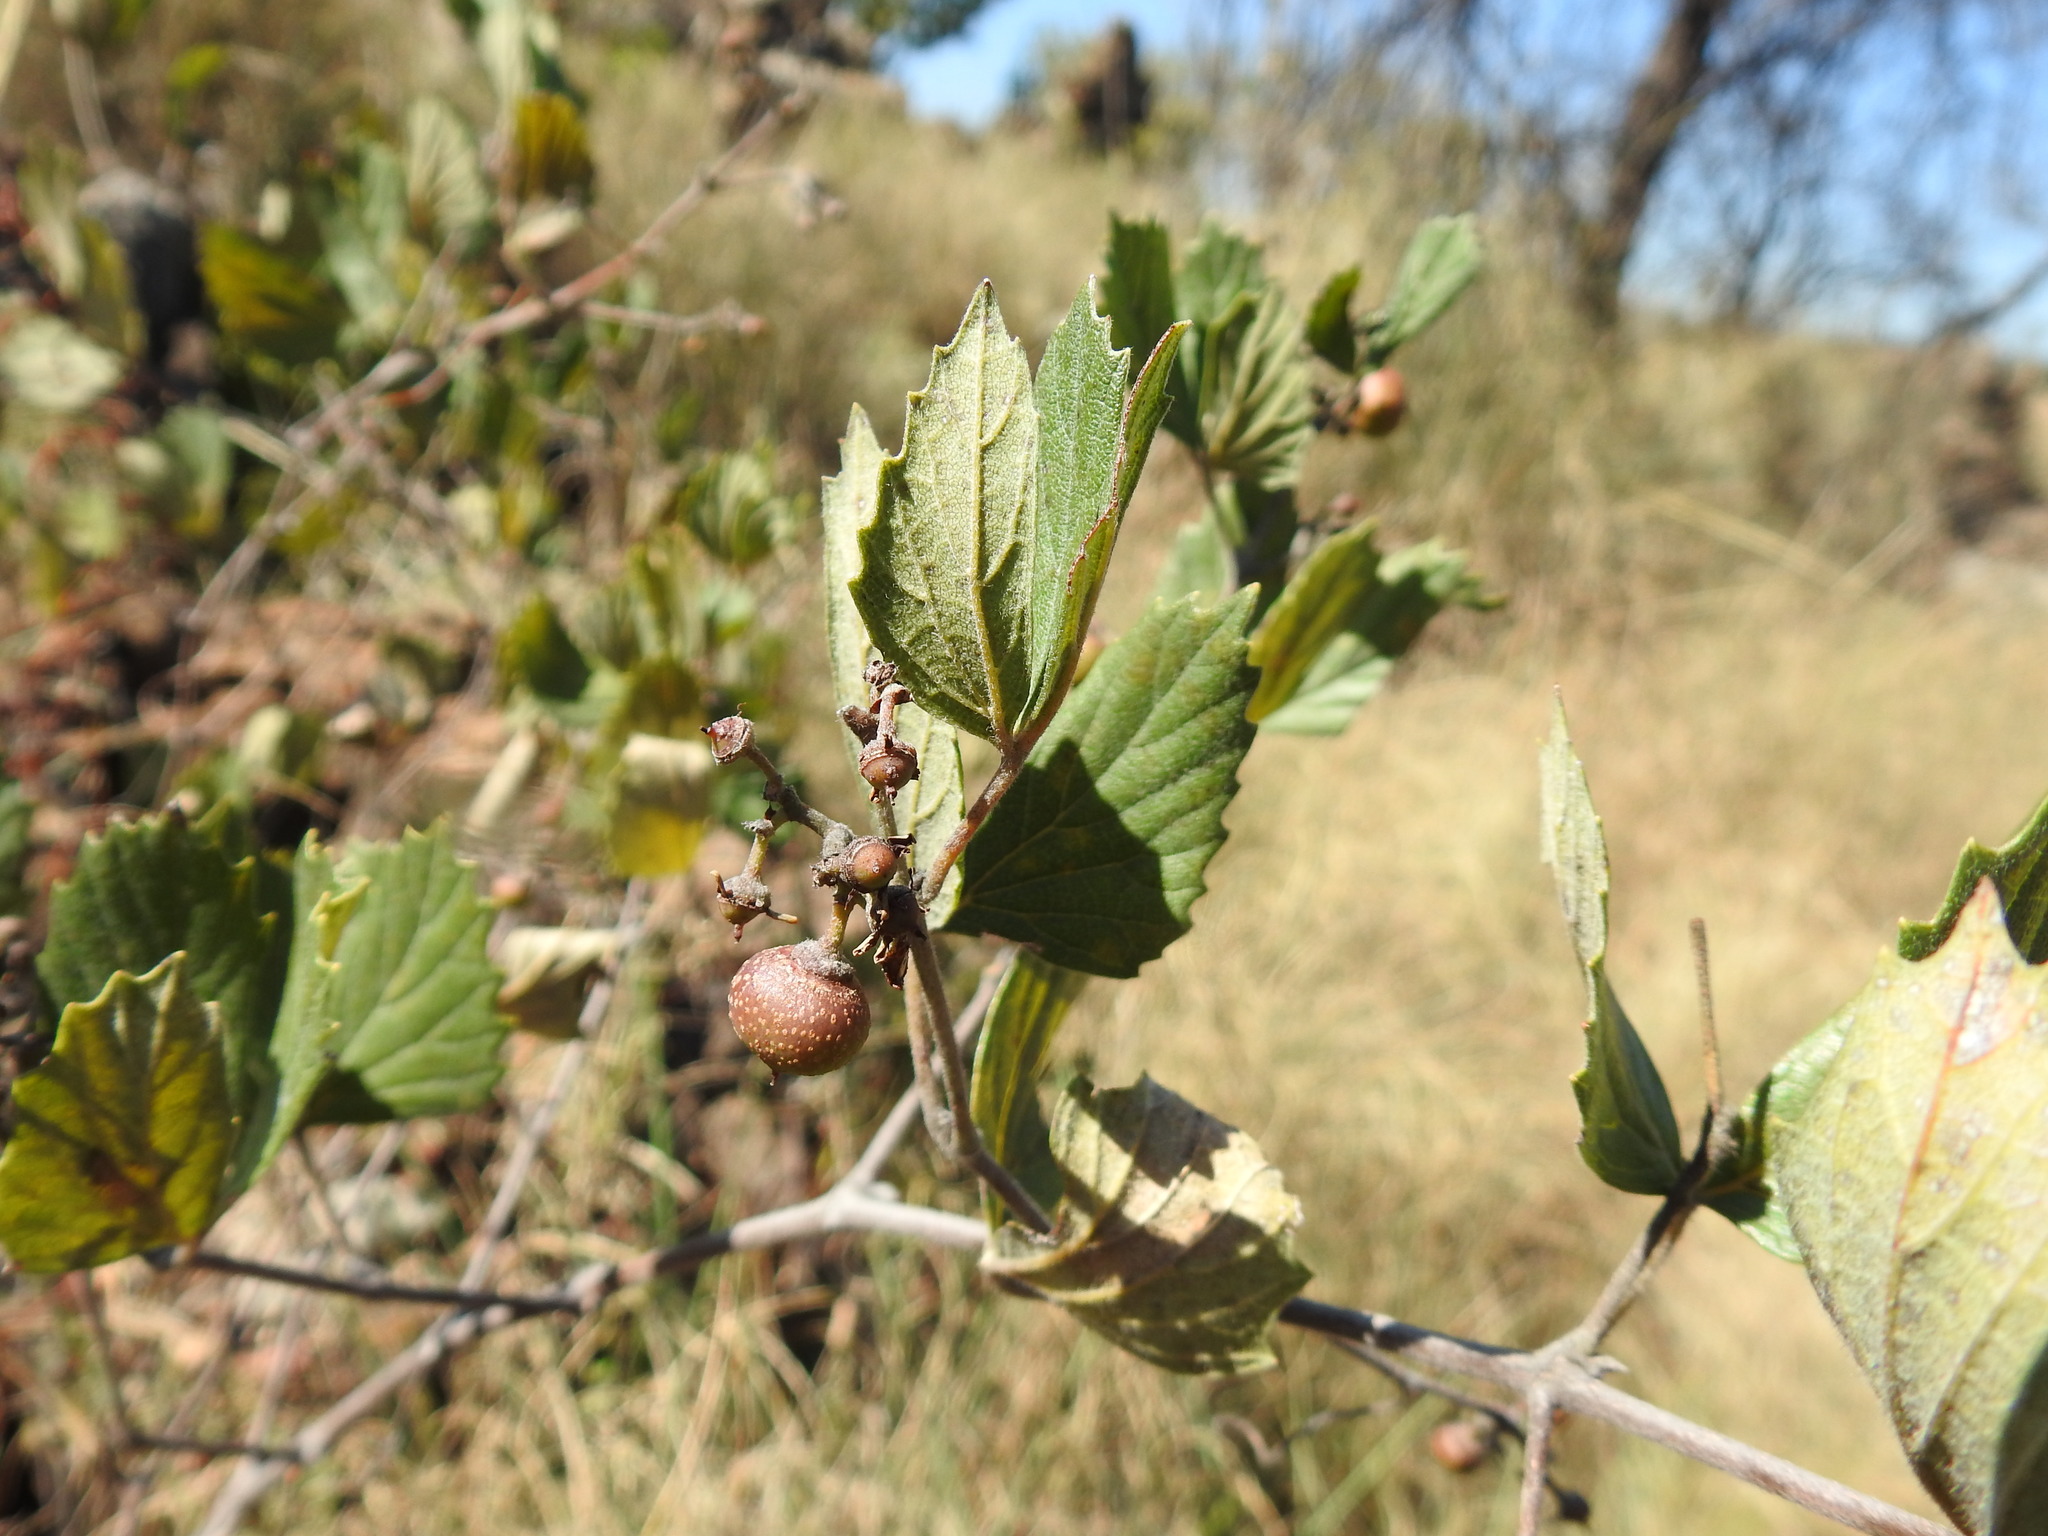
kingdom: Plantae
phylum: Tracheophyta
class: Magnoliopsida
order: Vitales
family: Vitaceae
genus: Rhoicissus
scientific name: Rhoicissus tridentata
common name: Common forest grape
